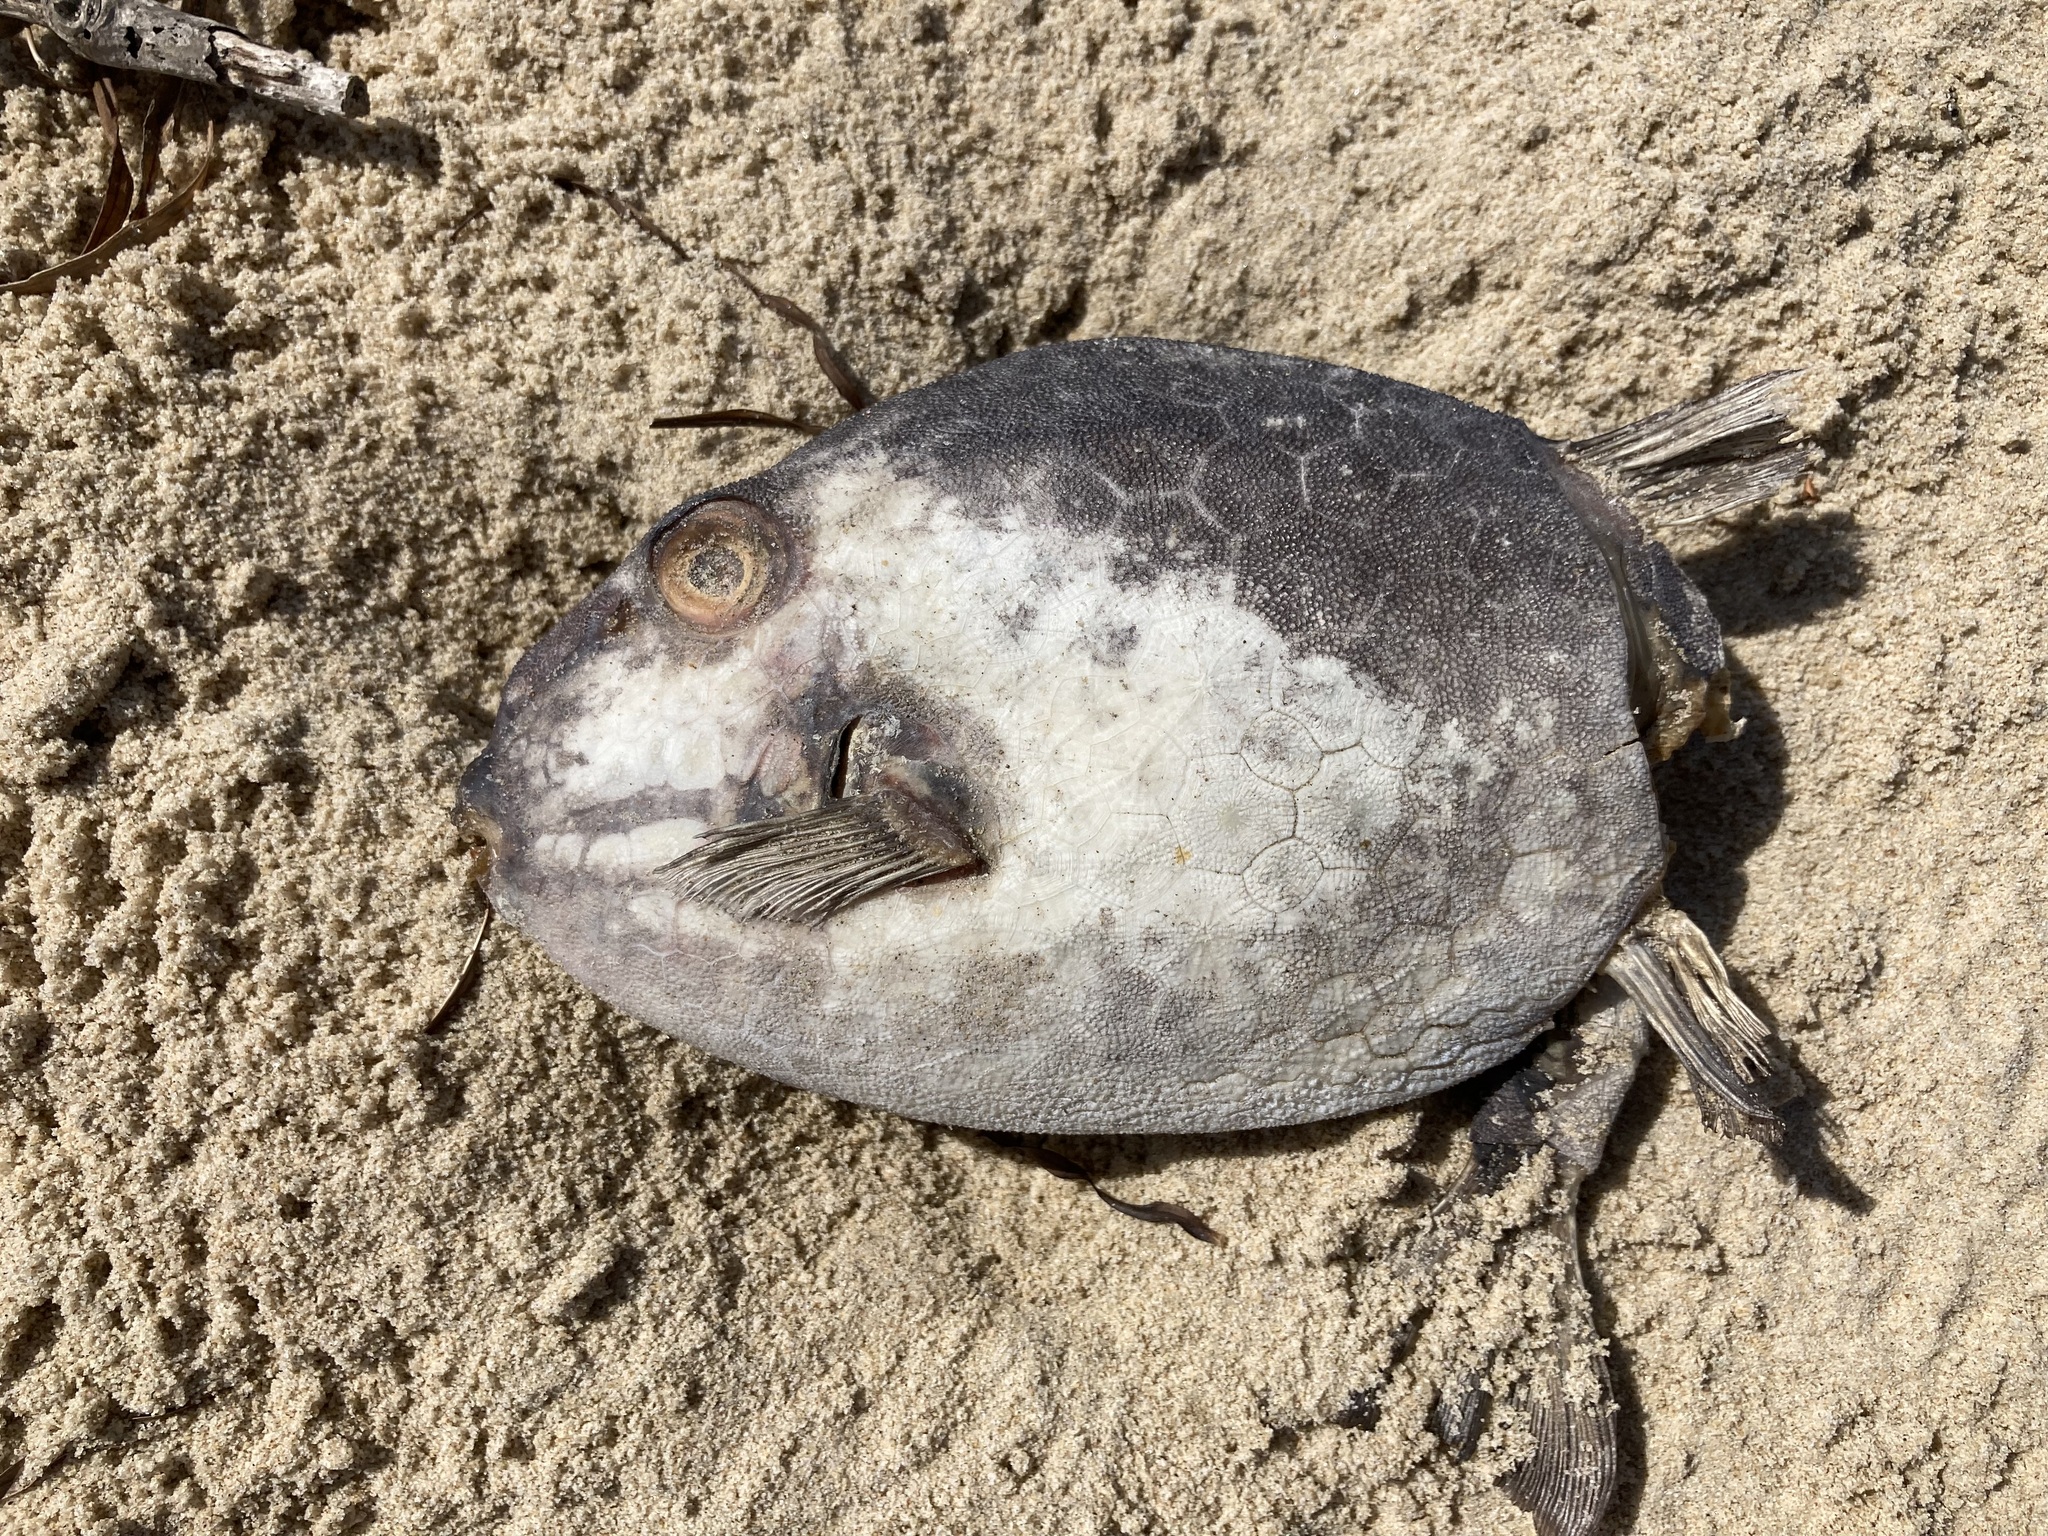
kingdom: Animalia
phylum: Chordata
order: Tetraodontiformes
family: Aracanidae
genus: Anoplocapros
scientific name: Anoplocapros inermis
